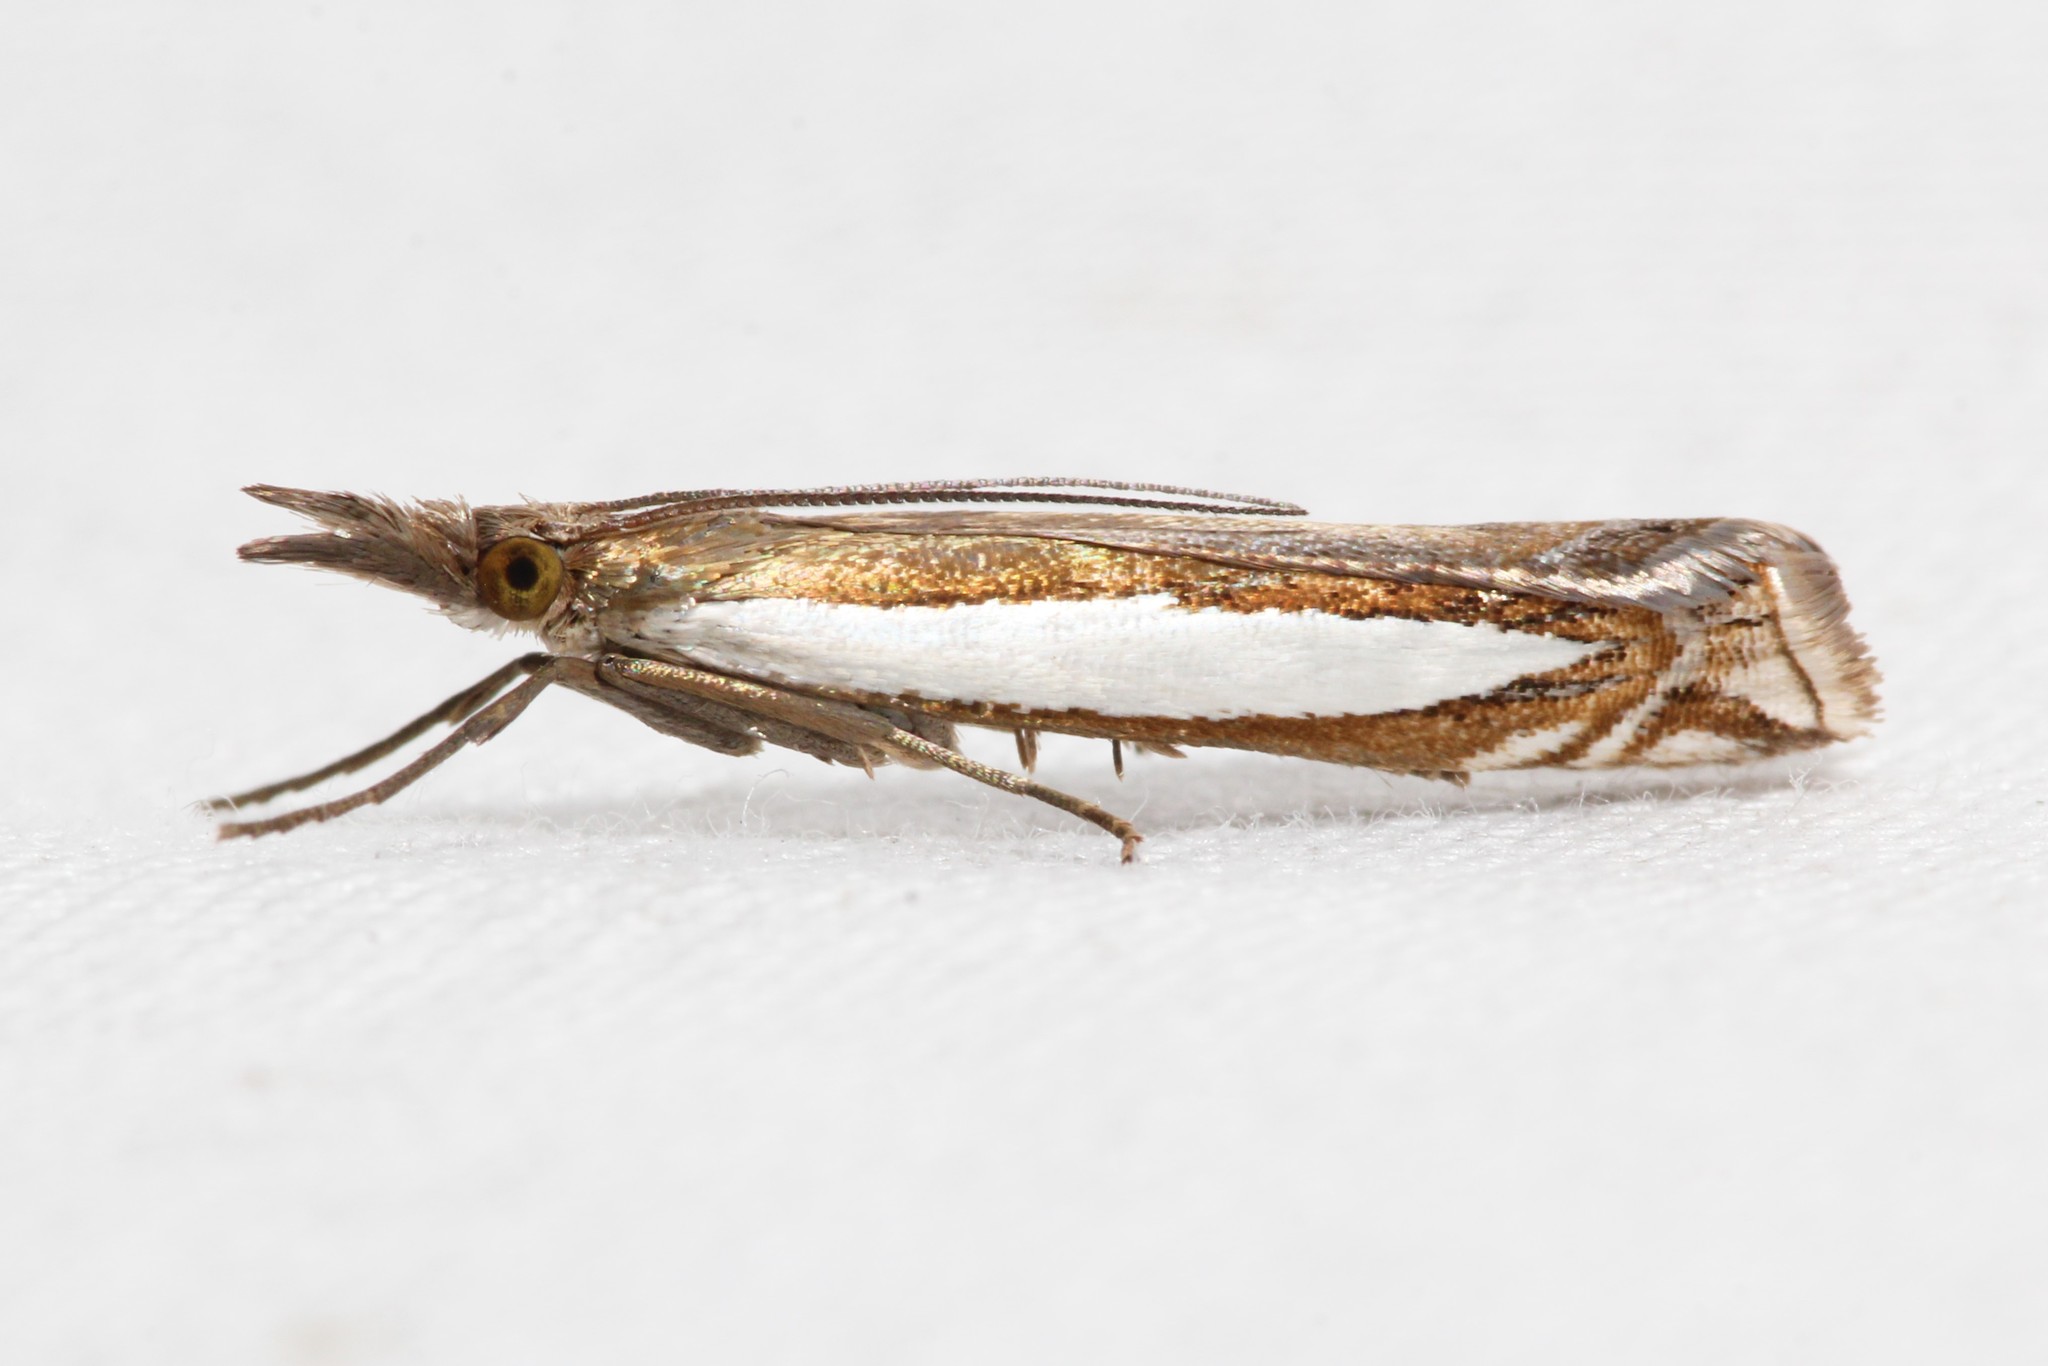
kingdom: Animalia
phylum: Arthropoda
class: Insecta
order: Lepidoptera
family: Crambidae
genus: Crambus
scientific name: Crambus leachellus
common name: Leach's grass-veneer
